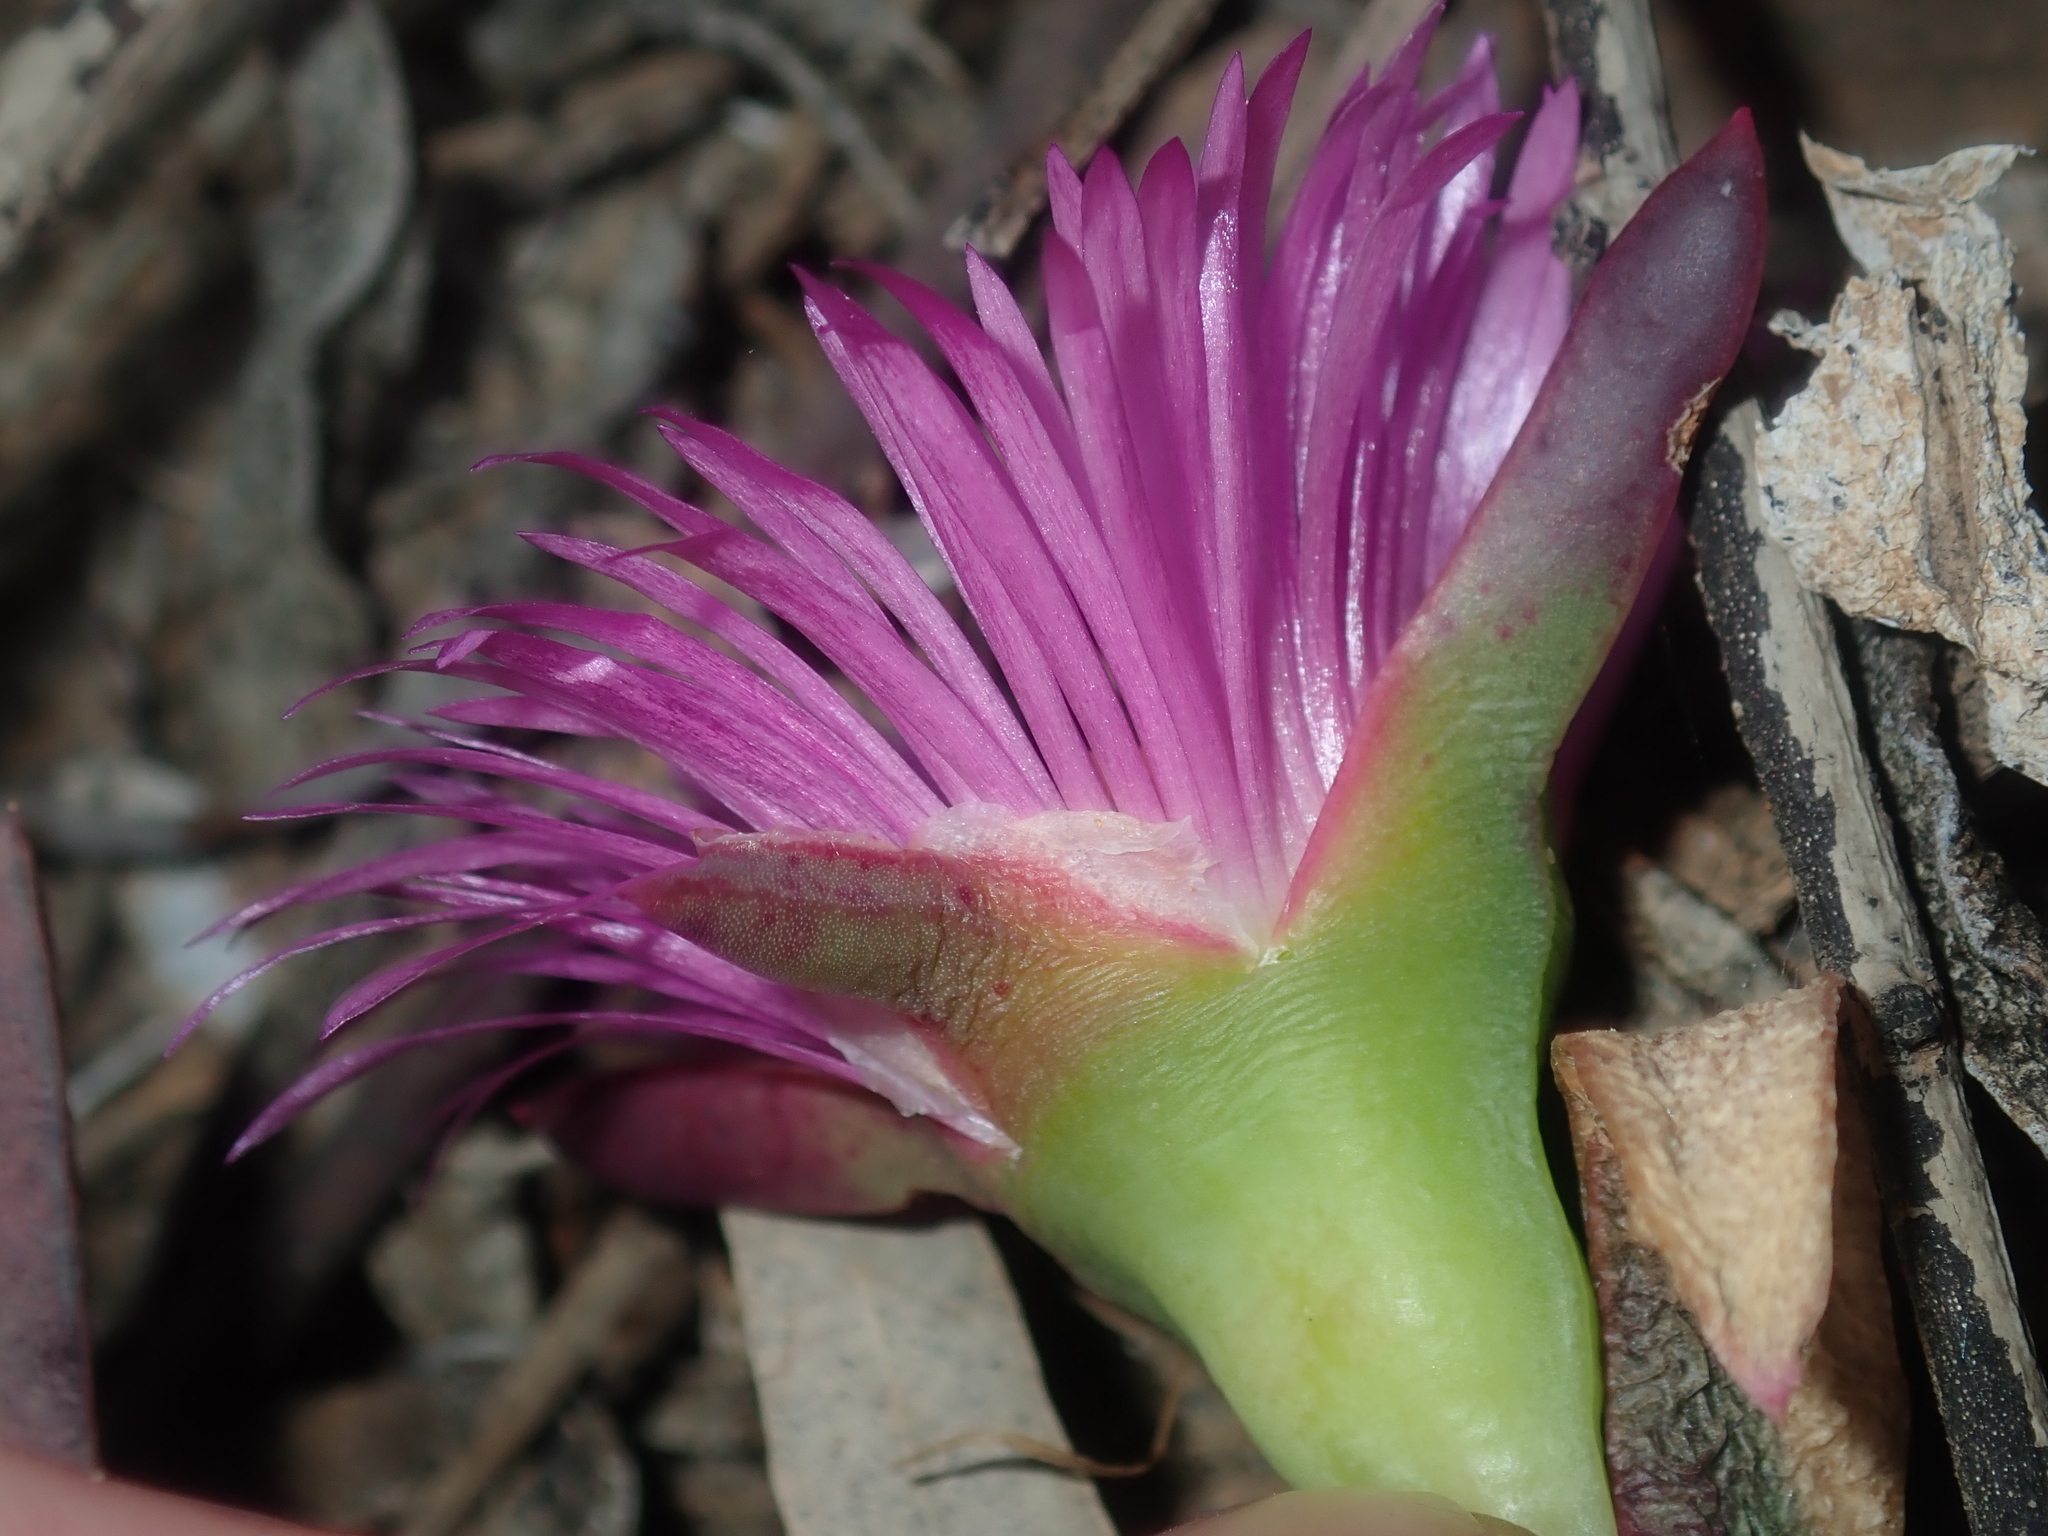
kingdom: Plantae
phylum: Tracheophyta
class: Magnoliopsida
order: Caryophyllales
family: Aizoaceae
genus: Carpobrotus
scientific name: Carpobrotus virescens
